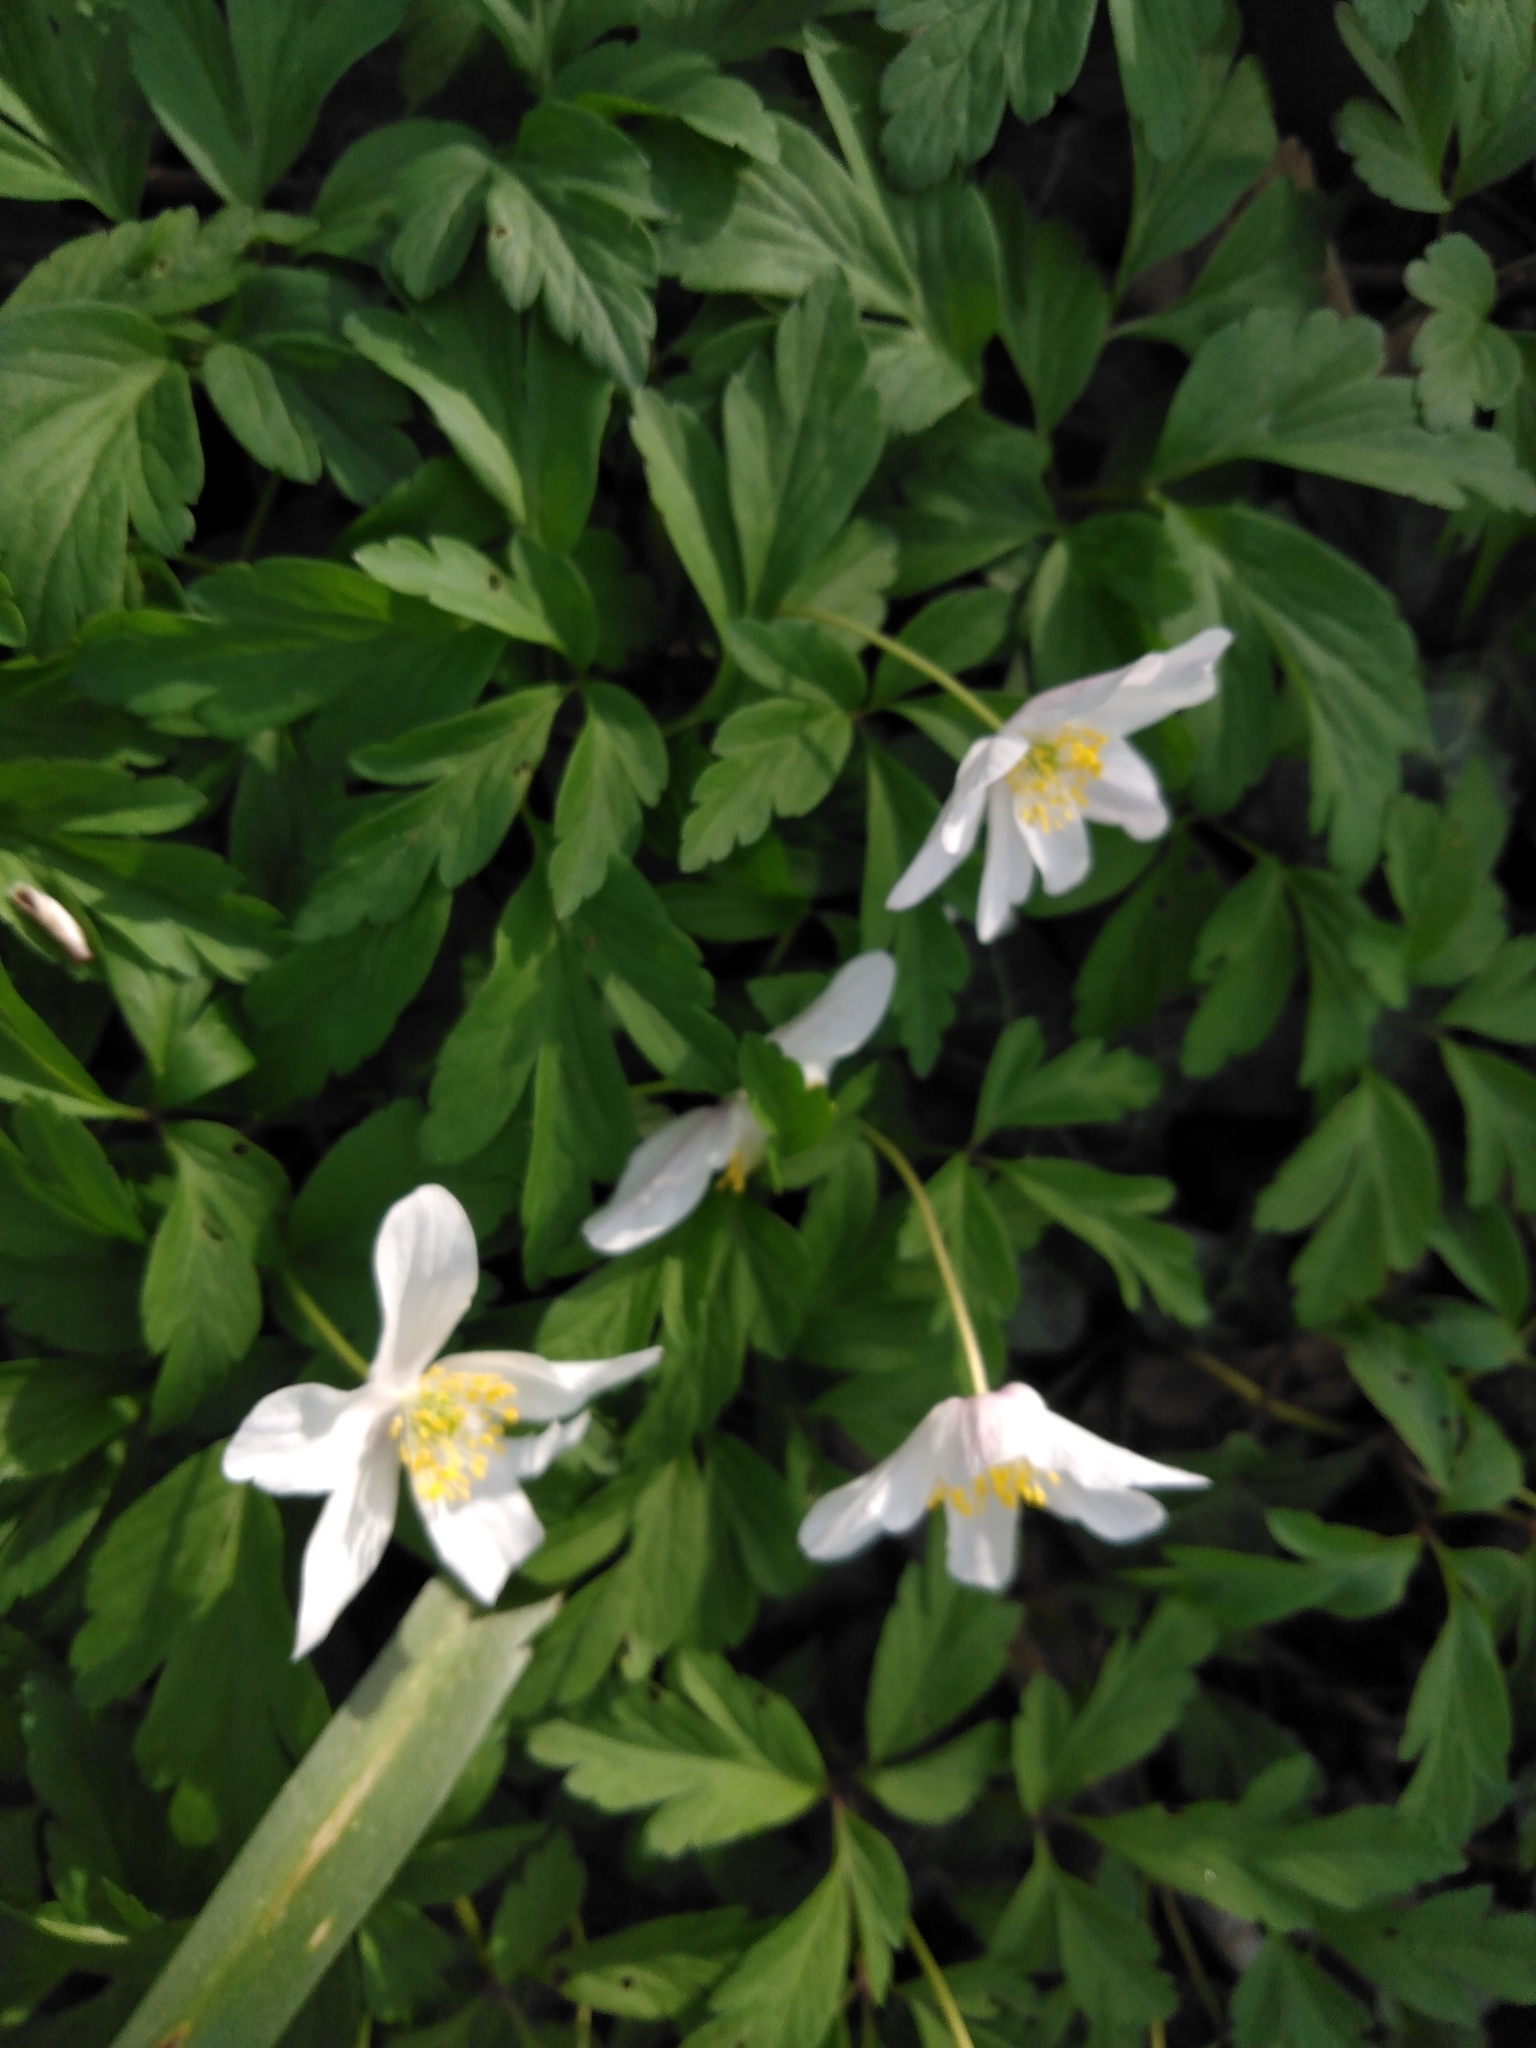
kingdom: Plantae
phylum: Tracheophyta
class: Magnoliopsida
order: Ranunculales
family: Ranunculaceae
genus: Anemone
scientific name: Anemone nemorosa
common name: Wood anemone
